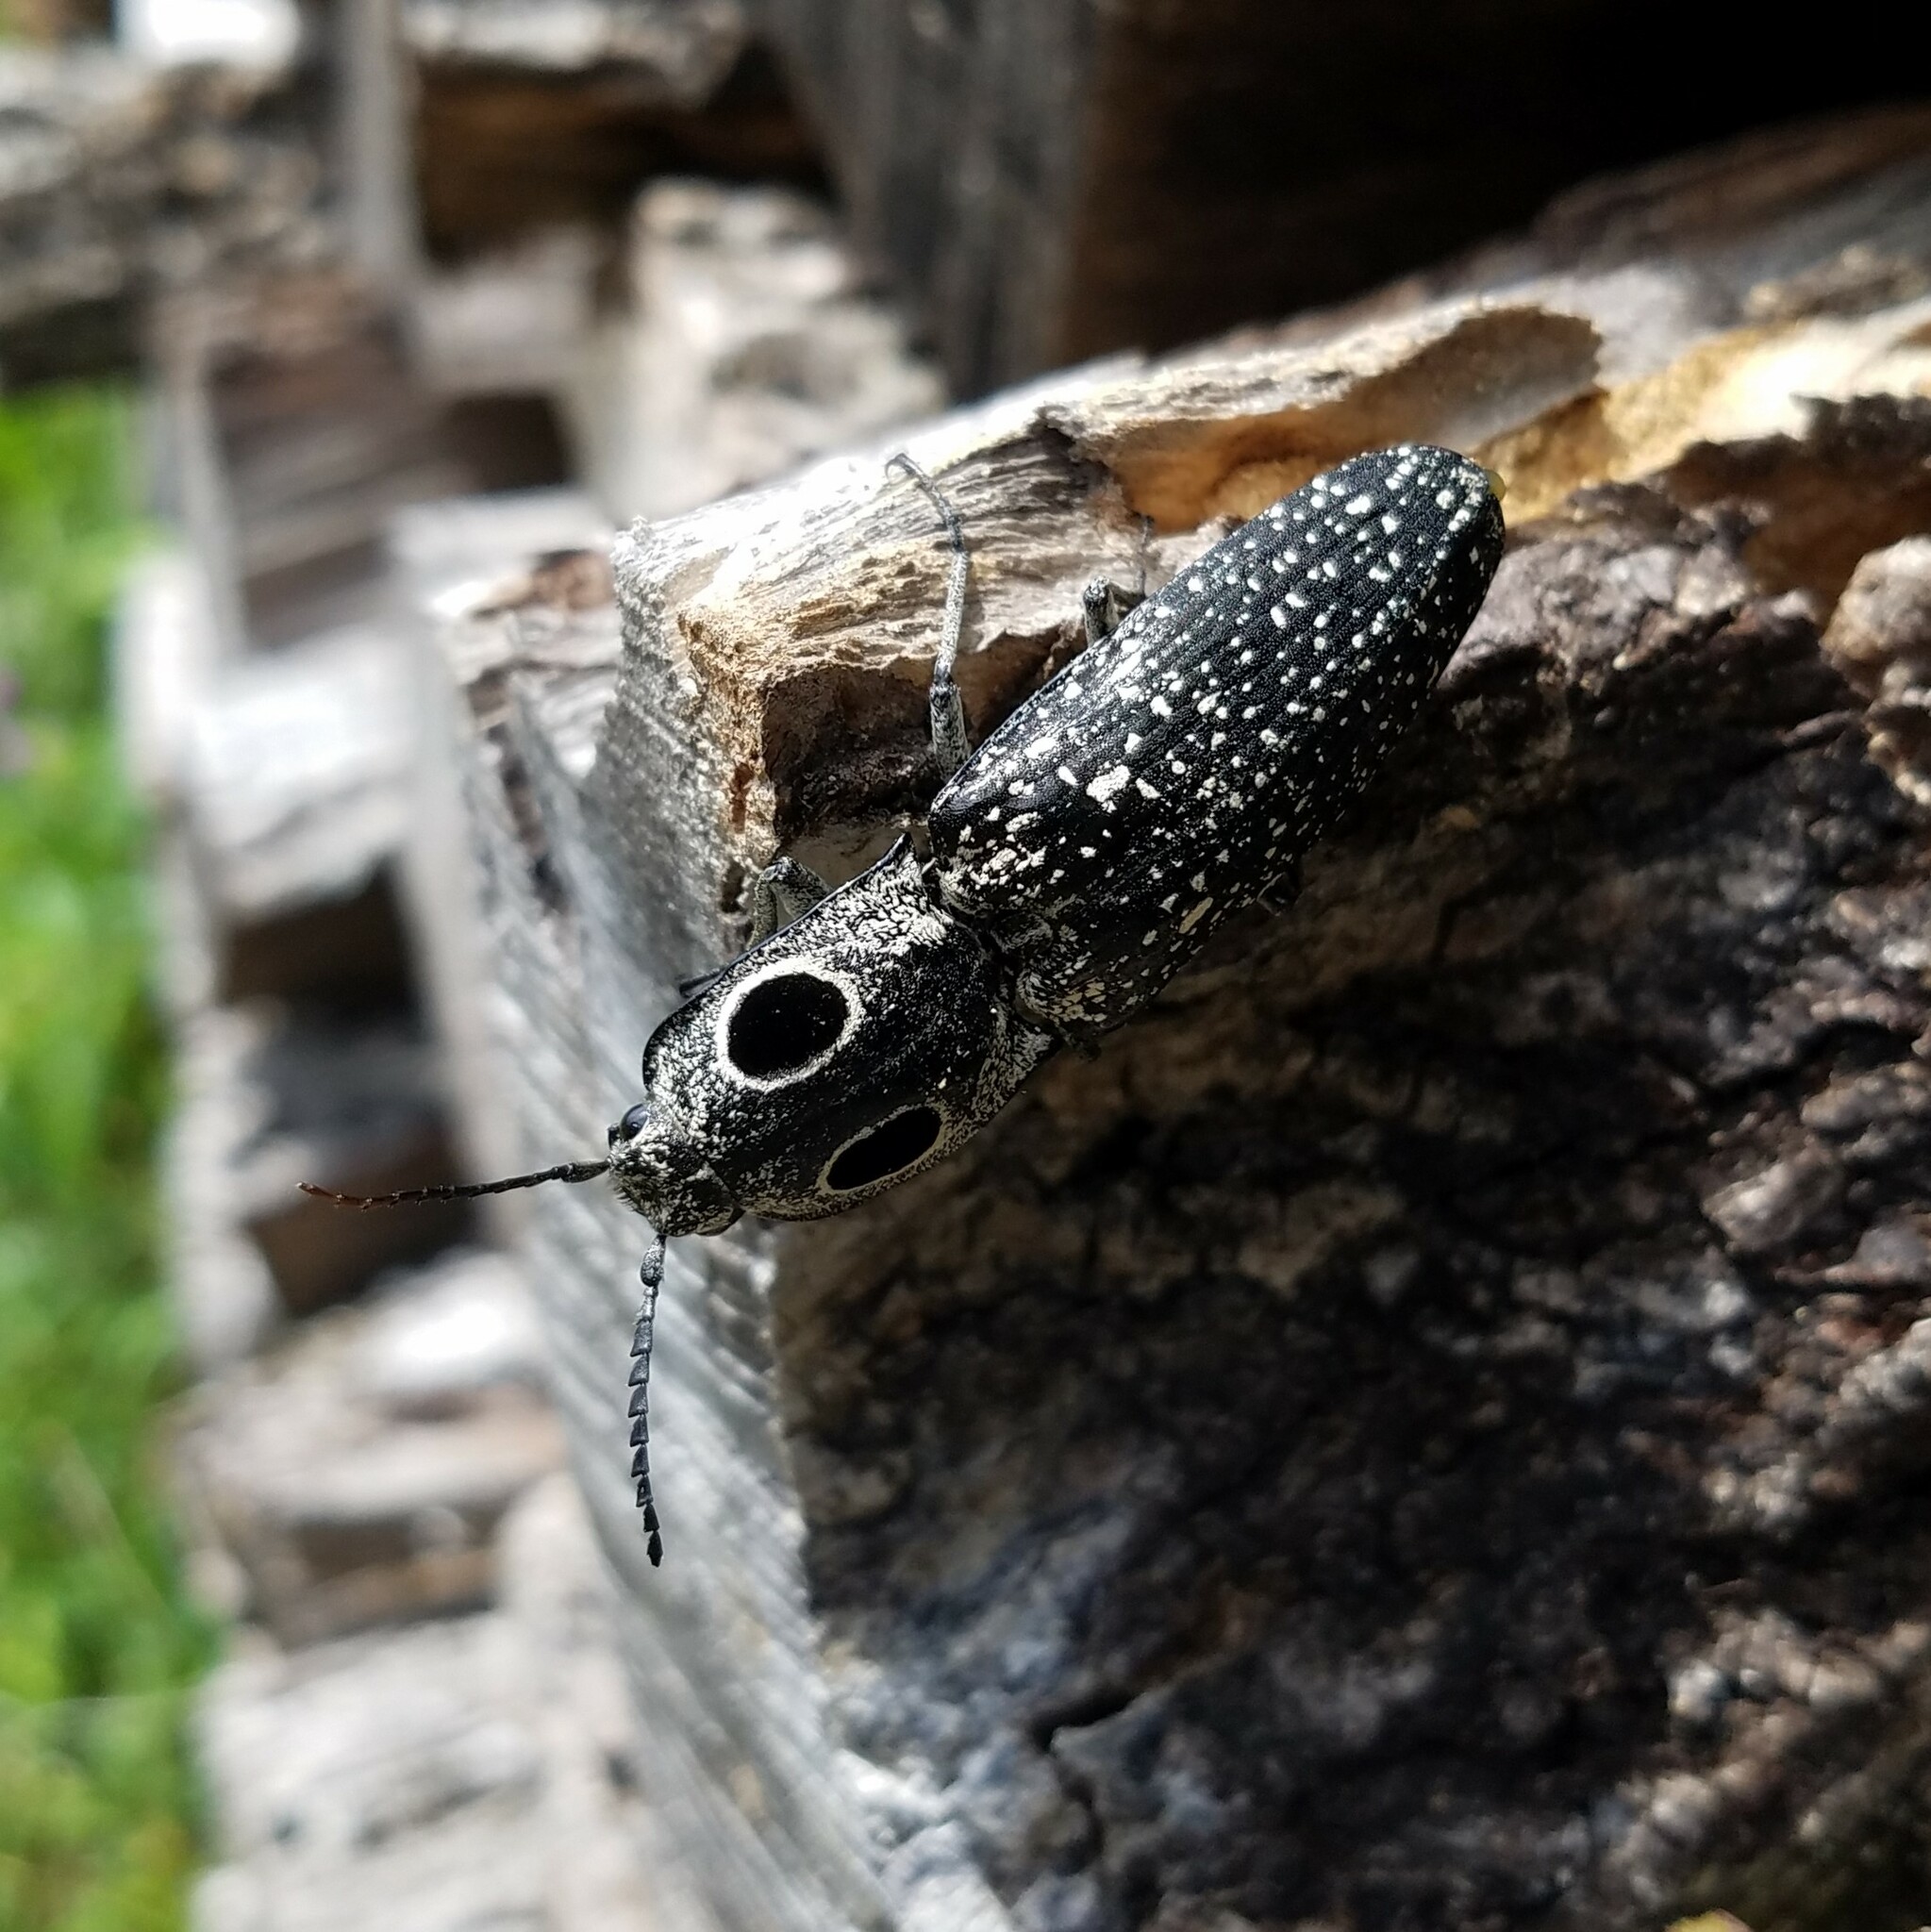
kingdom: Animalia
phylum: Arthropoda
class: Insecta
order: Coleoptera
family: Elateridae
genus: Alaus
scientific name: Alaus oculatus
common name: Eastern eyed click beetle
